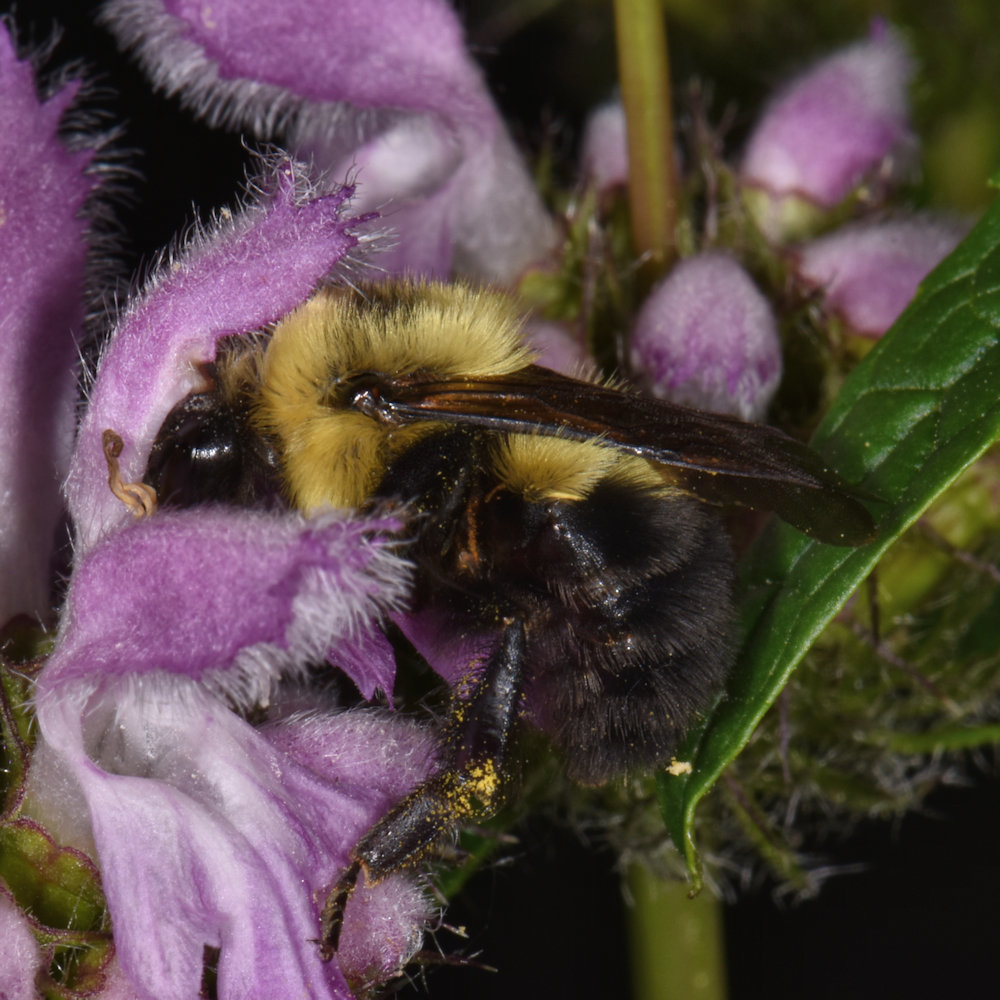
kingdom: Animalia
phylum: Arthropoda
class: Insecta
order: Hymenoptera
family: Apidae
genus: Bombus
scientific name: Bombus bimaculatus
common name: Two-spotted bumble bee
